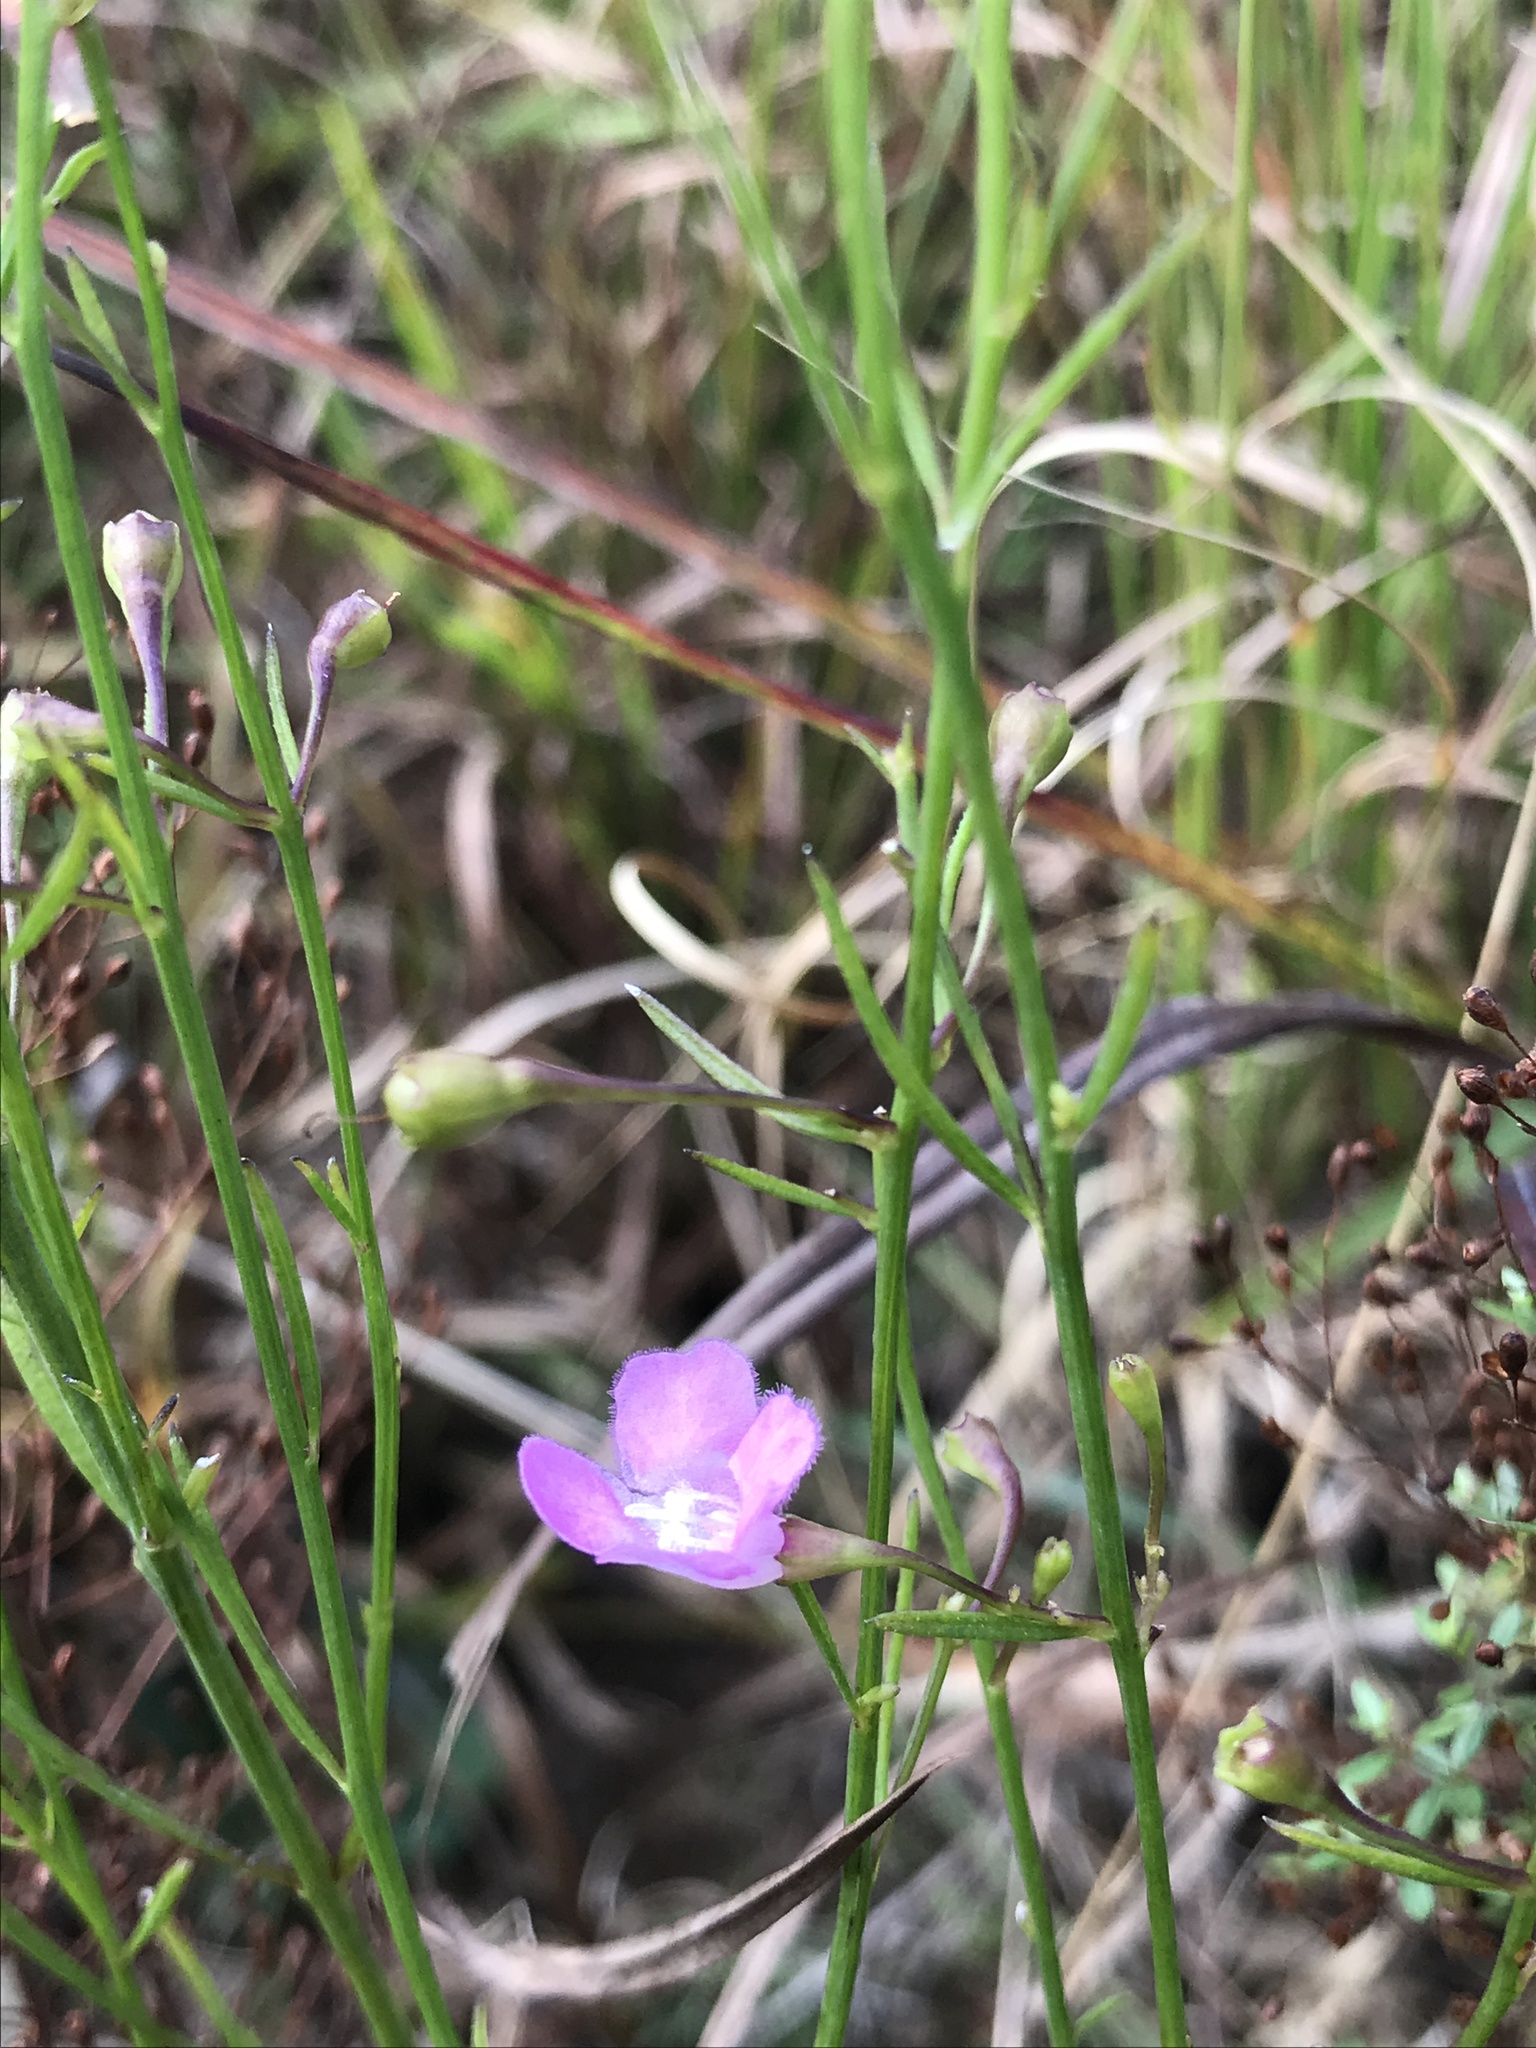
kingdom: Plantae
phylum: Tracheophyta
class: Magnoliopsida
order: Lamiales
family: Orobanchaceae
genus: Agalinis
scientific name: Agalinis decemloba
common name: Ten-lobed false foxglove
